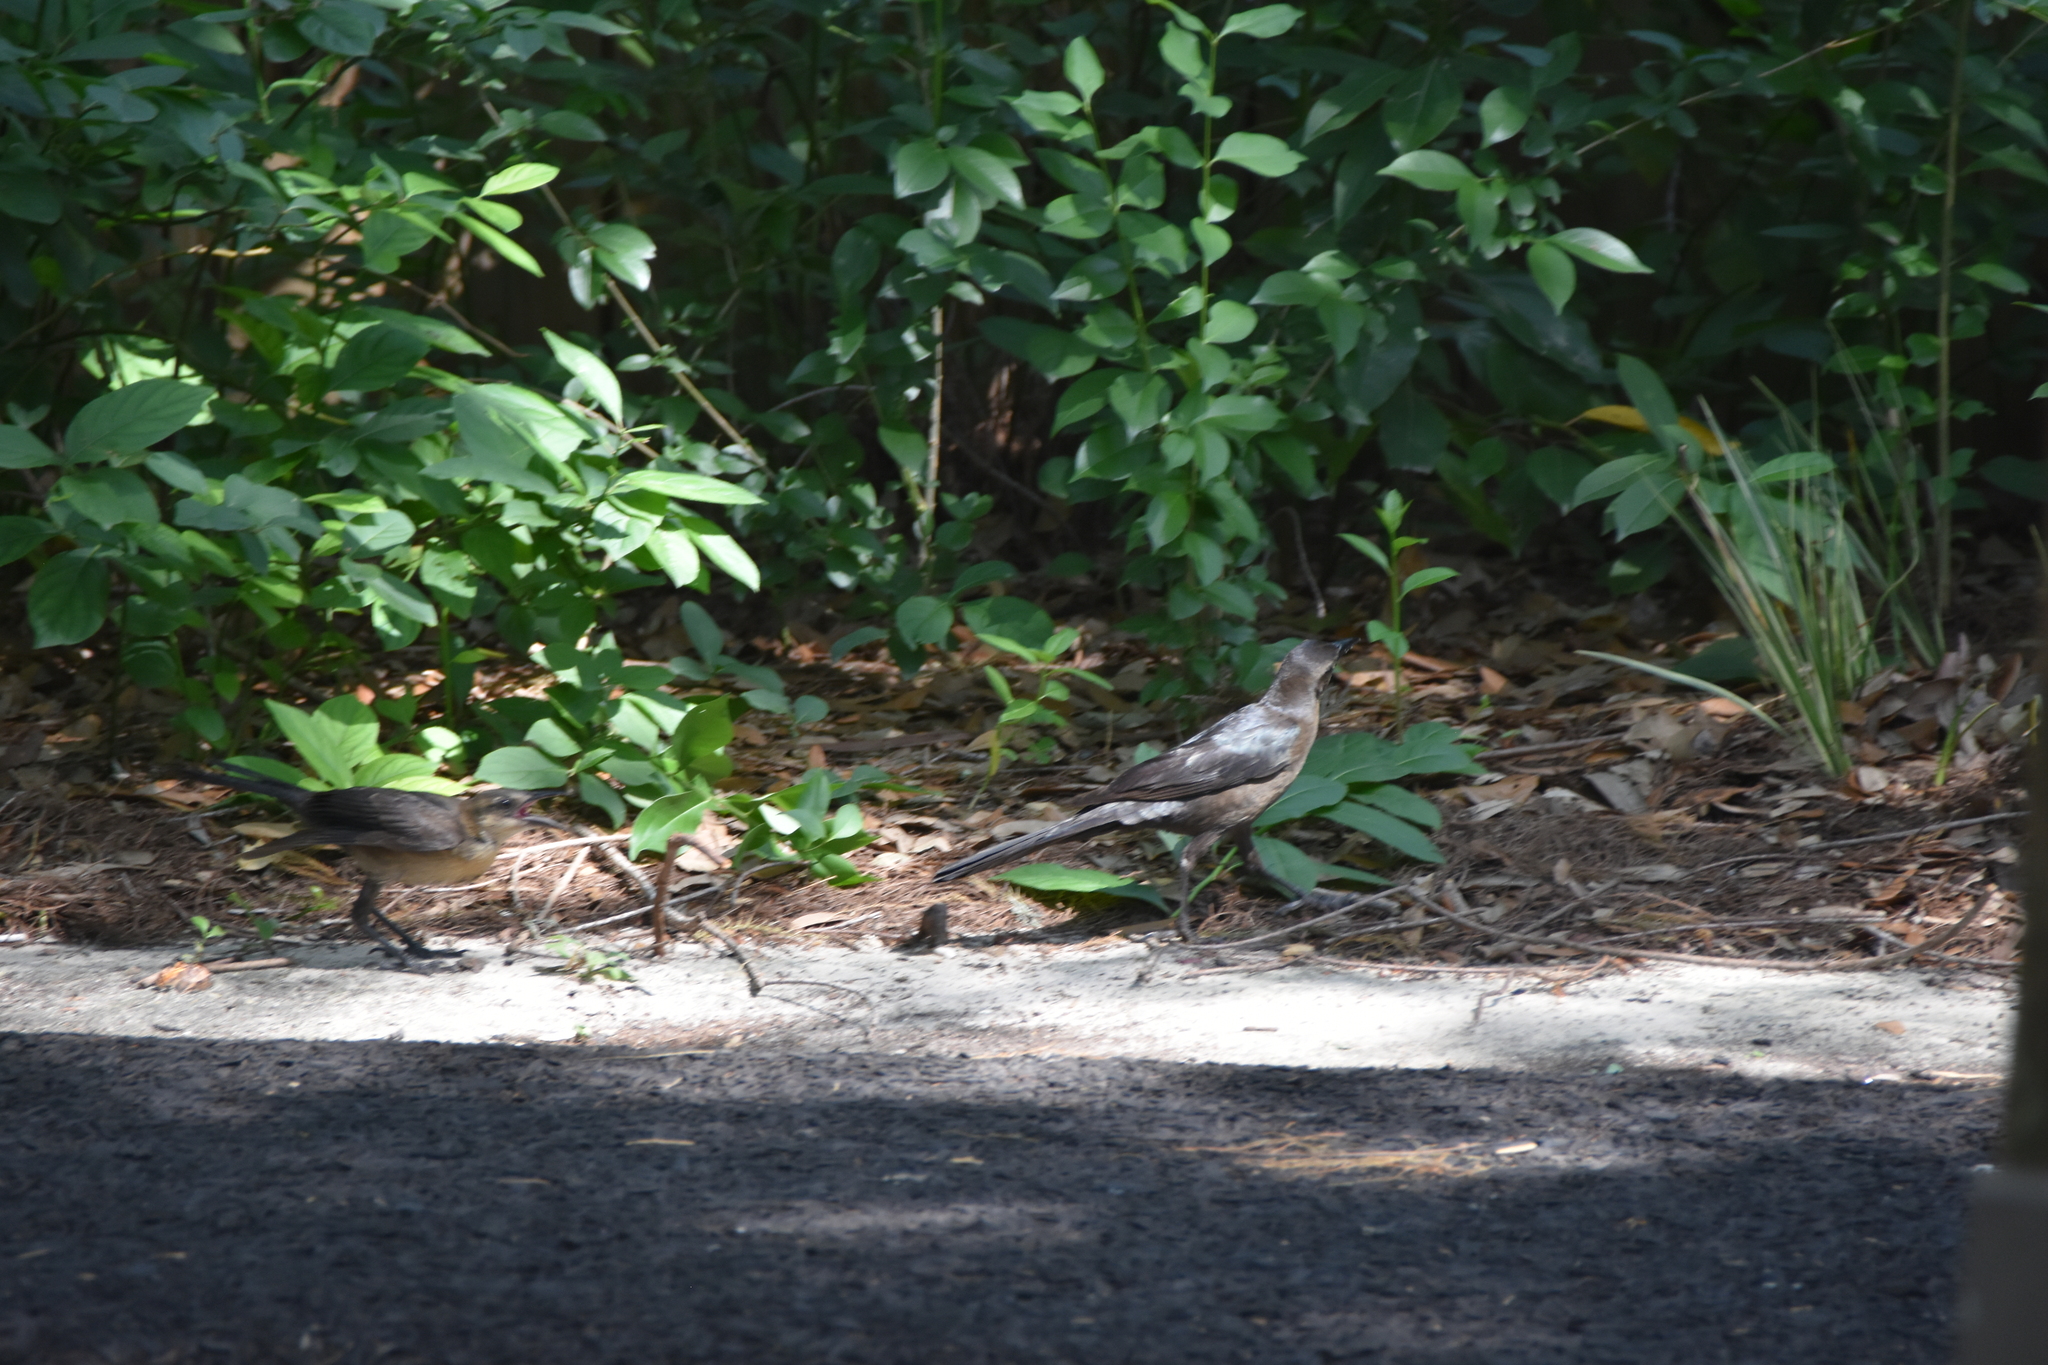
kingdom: Animalia
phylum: Chordata
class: Aves
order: Passeriformes
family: Icteridae
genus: Quiscalus
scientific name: Quiscalus mexicanus
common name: Great-tailed grackle
